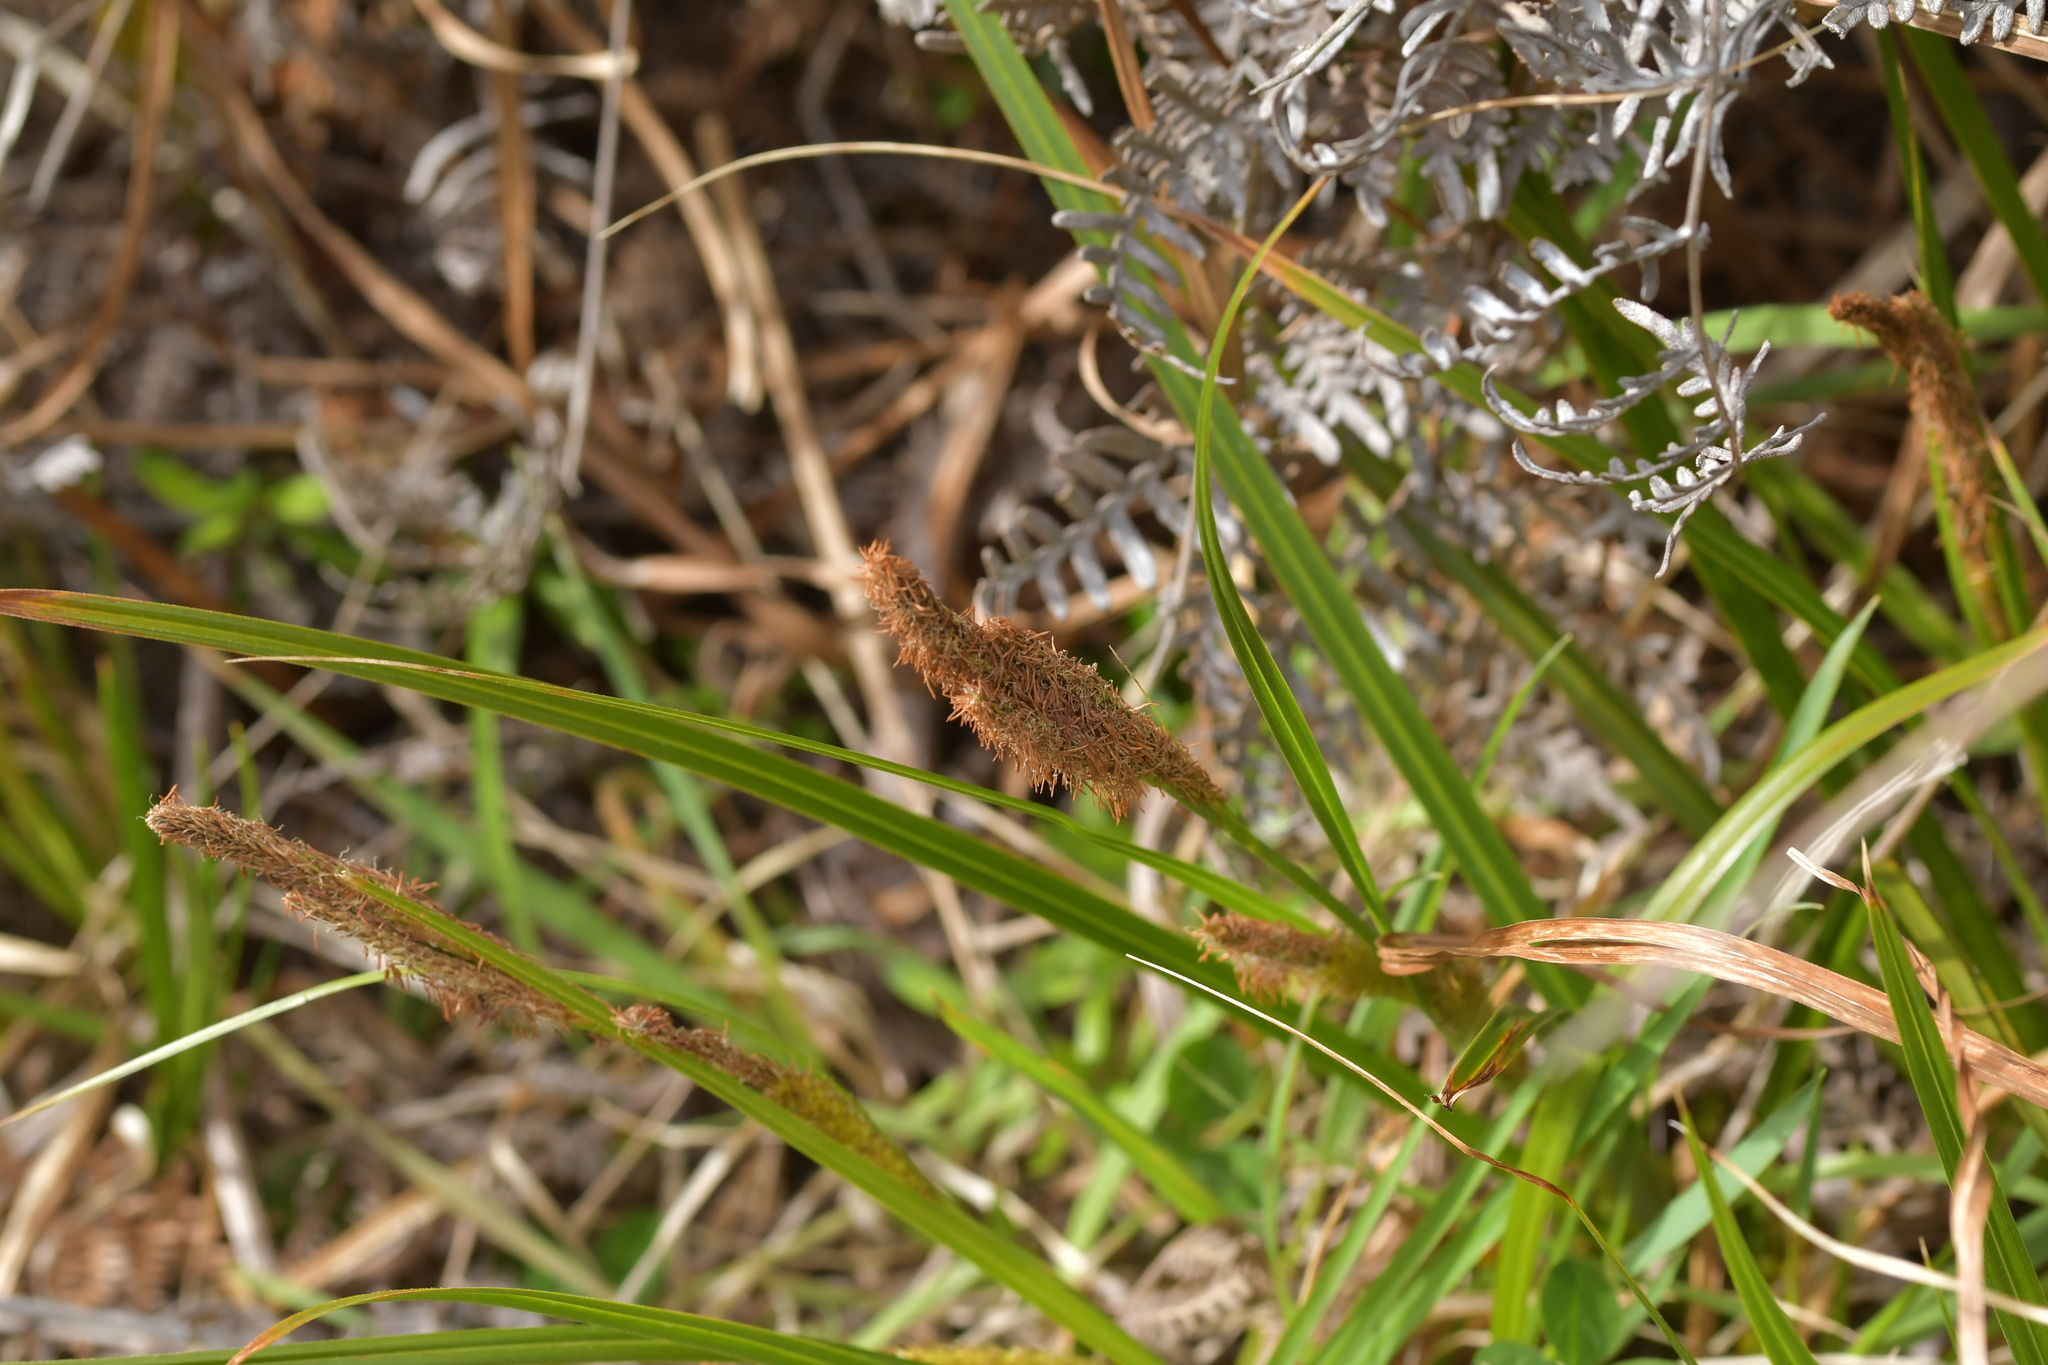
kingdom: Plantae
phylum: Tracheophyta
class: Liliopsida
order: Poales
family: Cyperaceae
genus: Carex
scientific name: Carex ventosa
